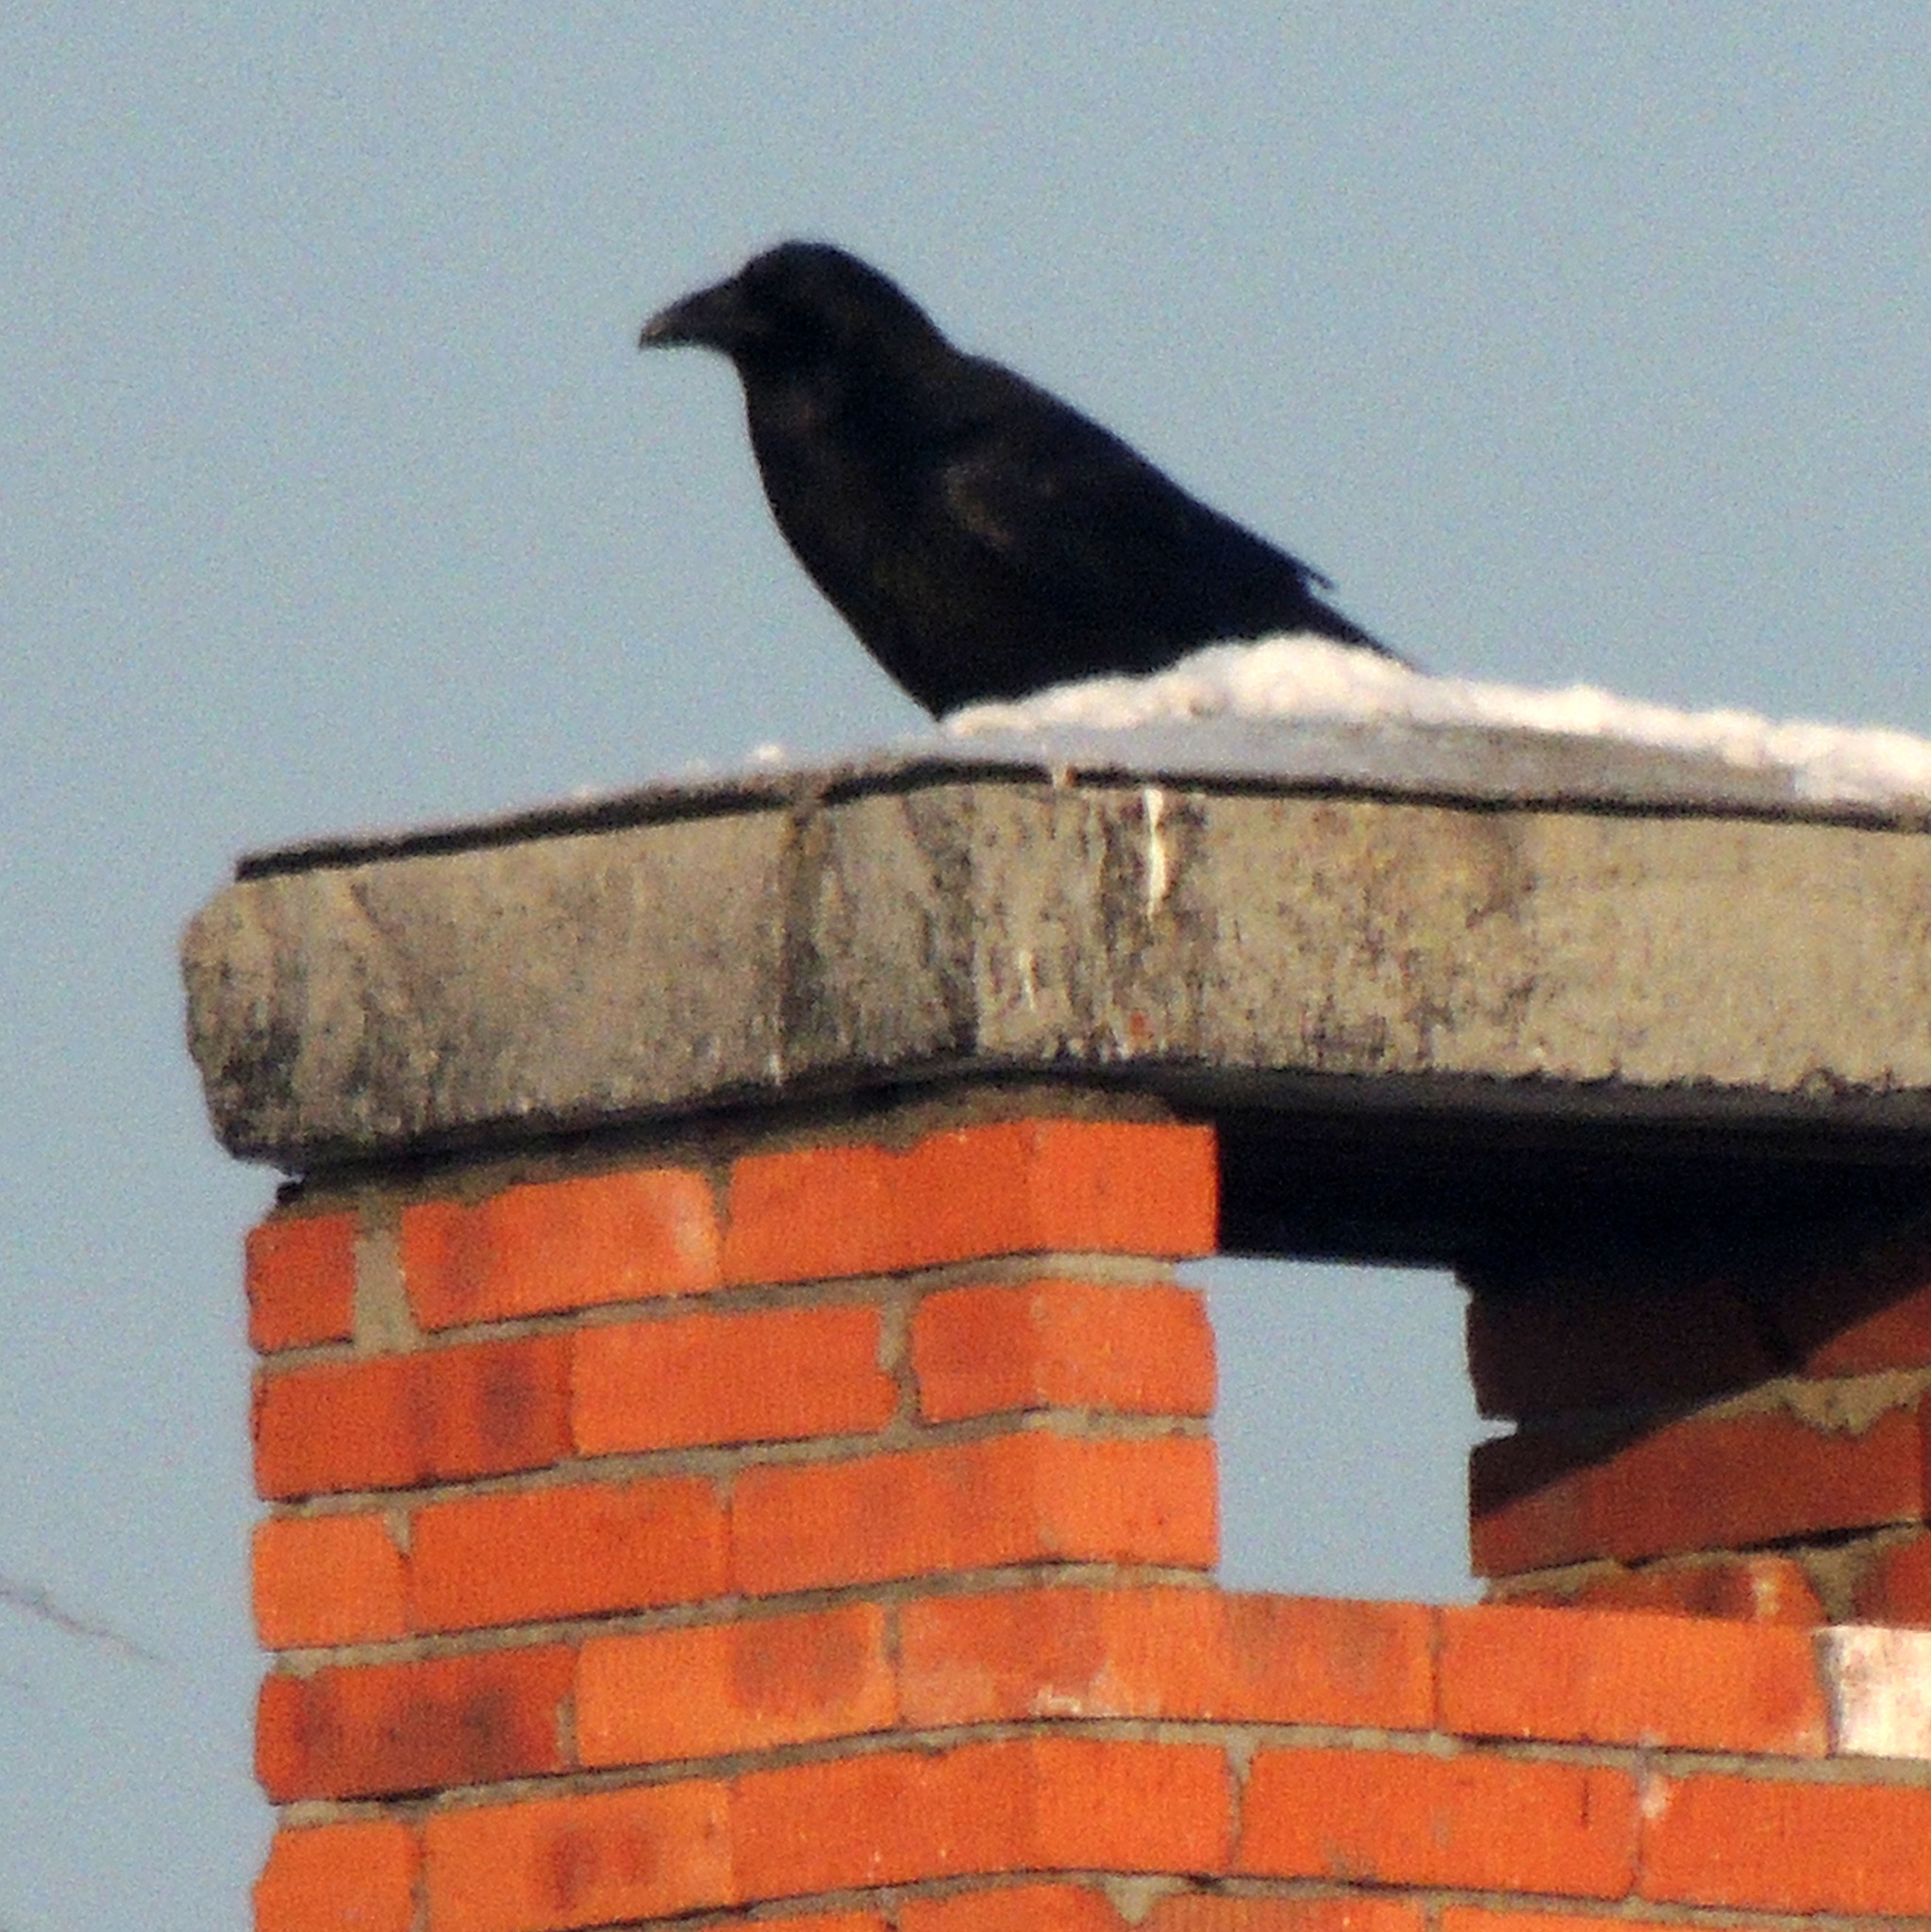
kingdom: Animalia
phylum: Chordata
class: Aves
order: Passeriformes
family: Corvidae
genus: Corvus
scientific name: Corvus corax
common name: Common raven
